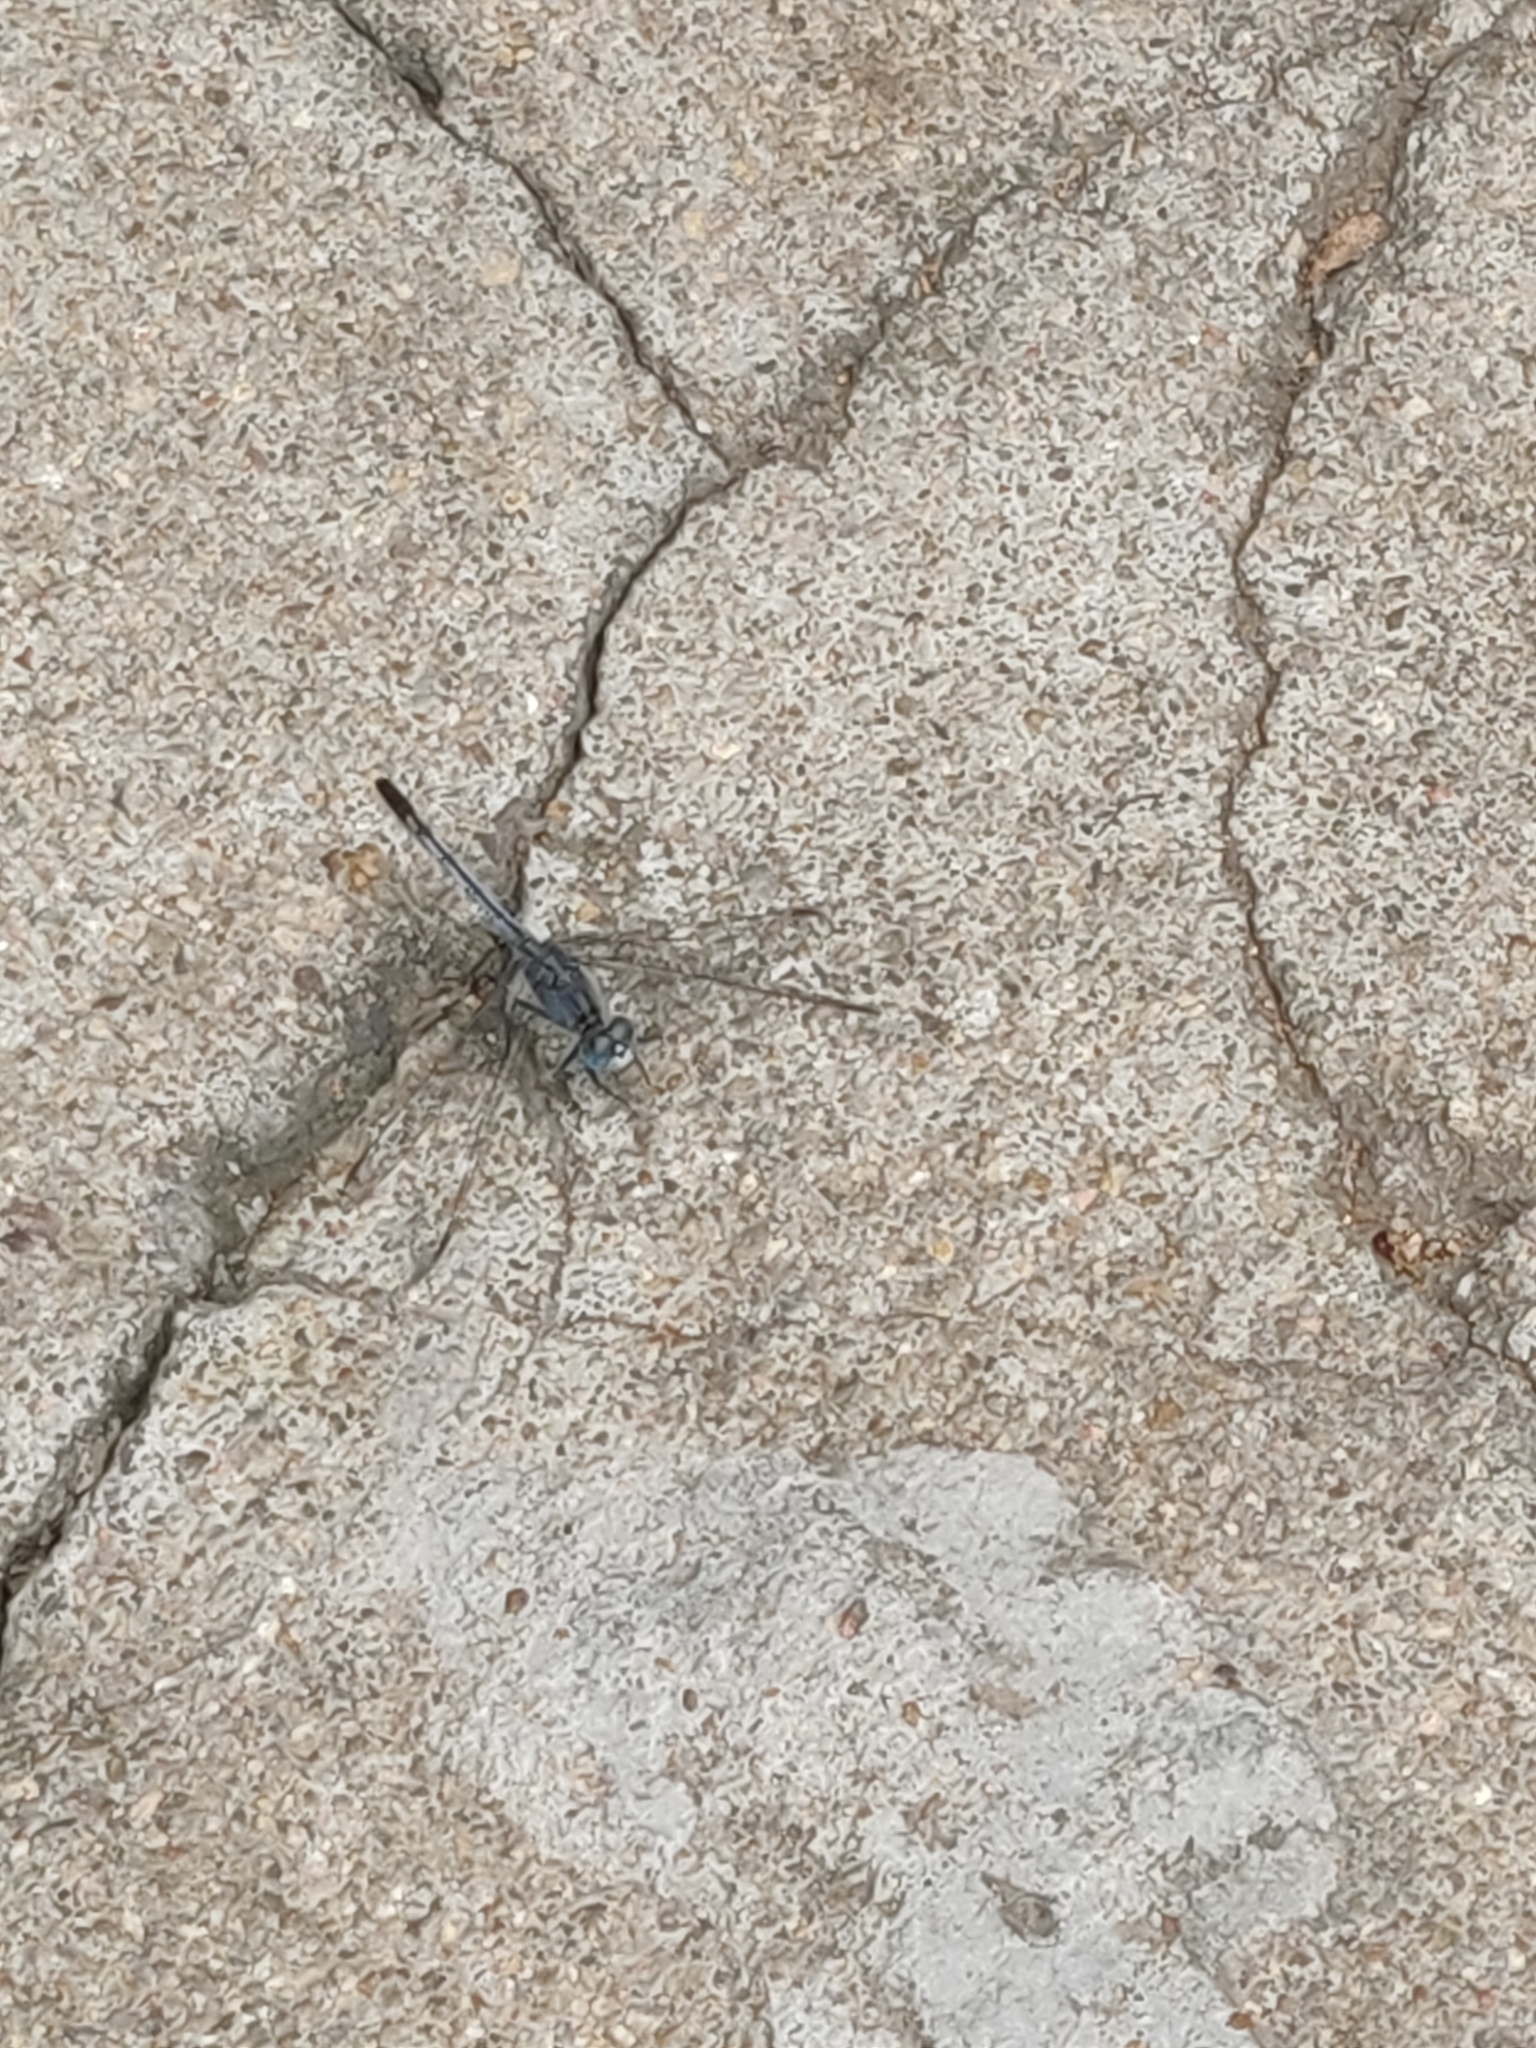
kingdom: Animalia
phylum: Arthropoda
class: Insecta
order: Odonata
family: Libellulidae
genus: Diplacodes
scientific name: Diplacodes trivialis
